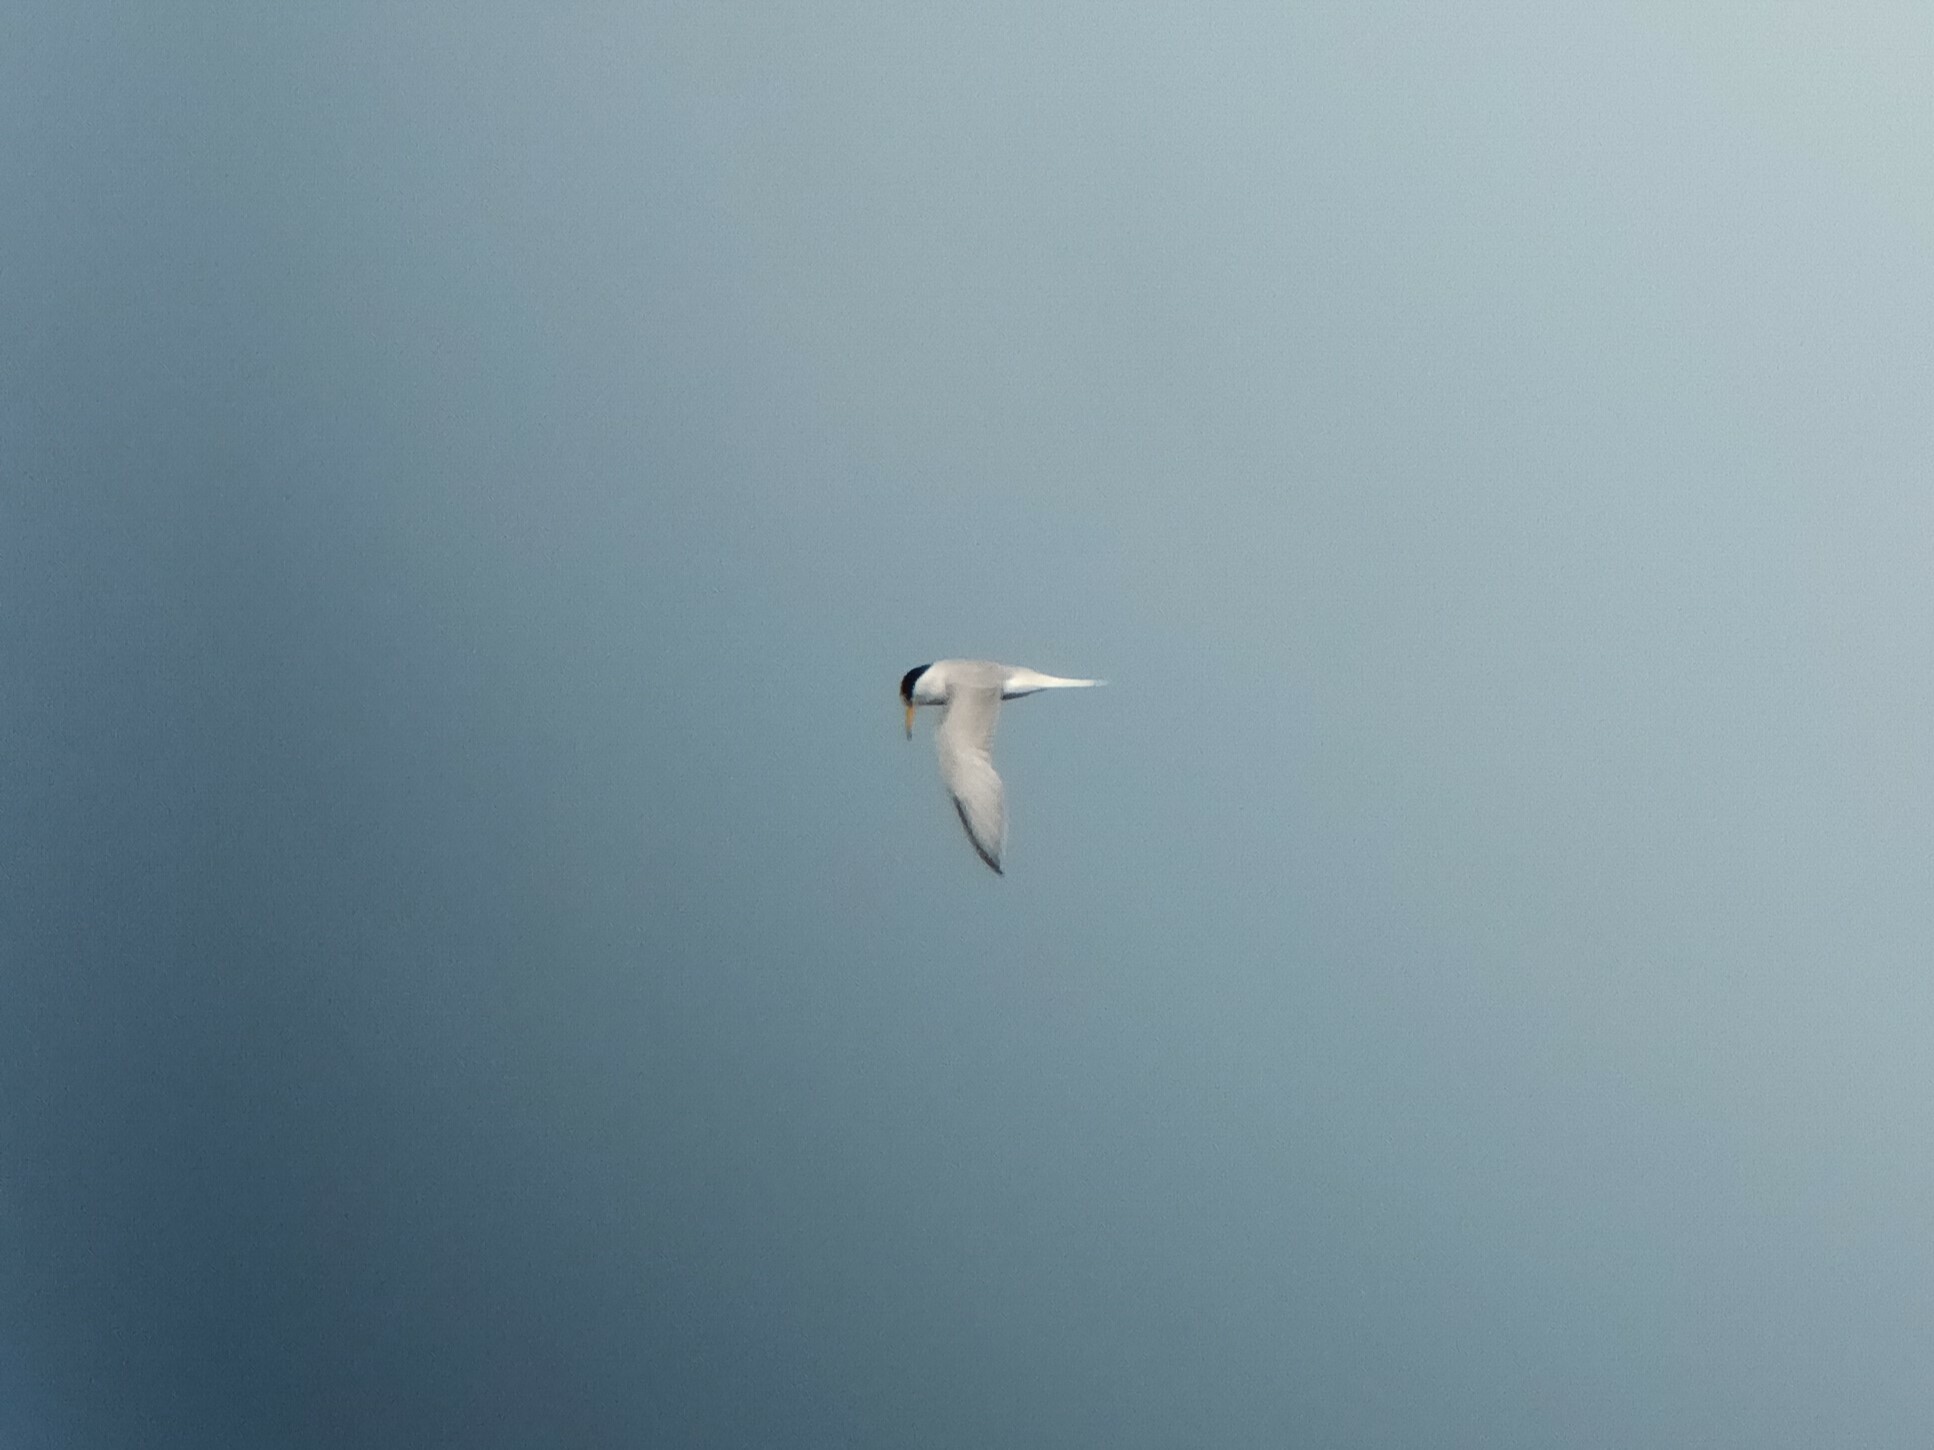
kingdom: Animalia
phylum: Chordata
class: Aves
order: Charadriiformes
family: Laridae
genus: Sternula
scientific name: Sternula albifrons
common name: Little tern
